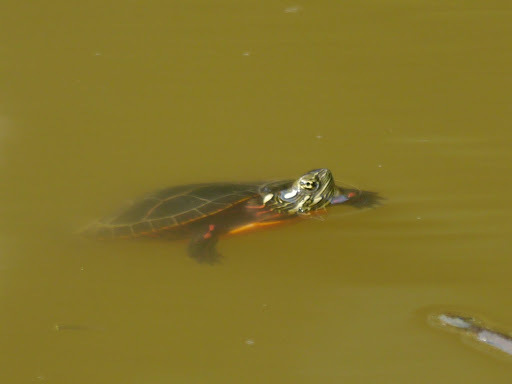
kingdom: Animalia
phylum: Chordata
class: Testudines
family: Emydidae
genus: Chrysemys
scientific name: Chrysemys picta
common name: Painted turtle
